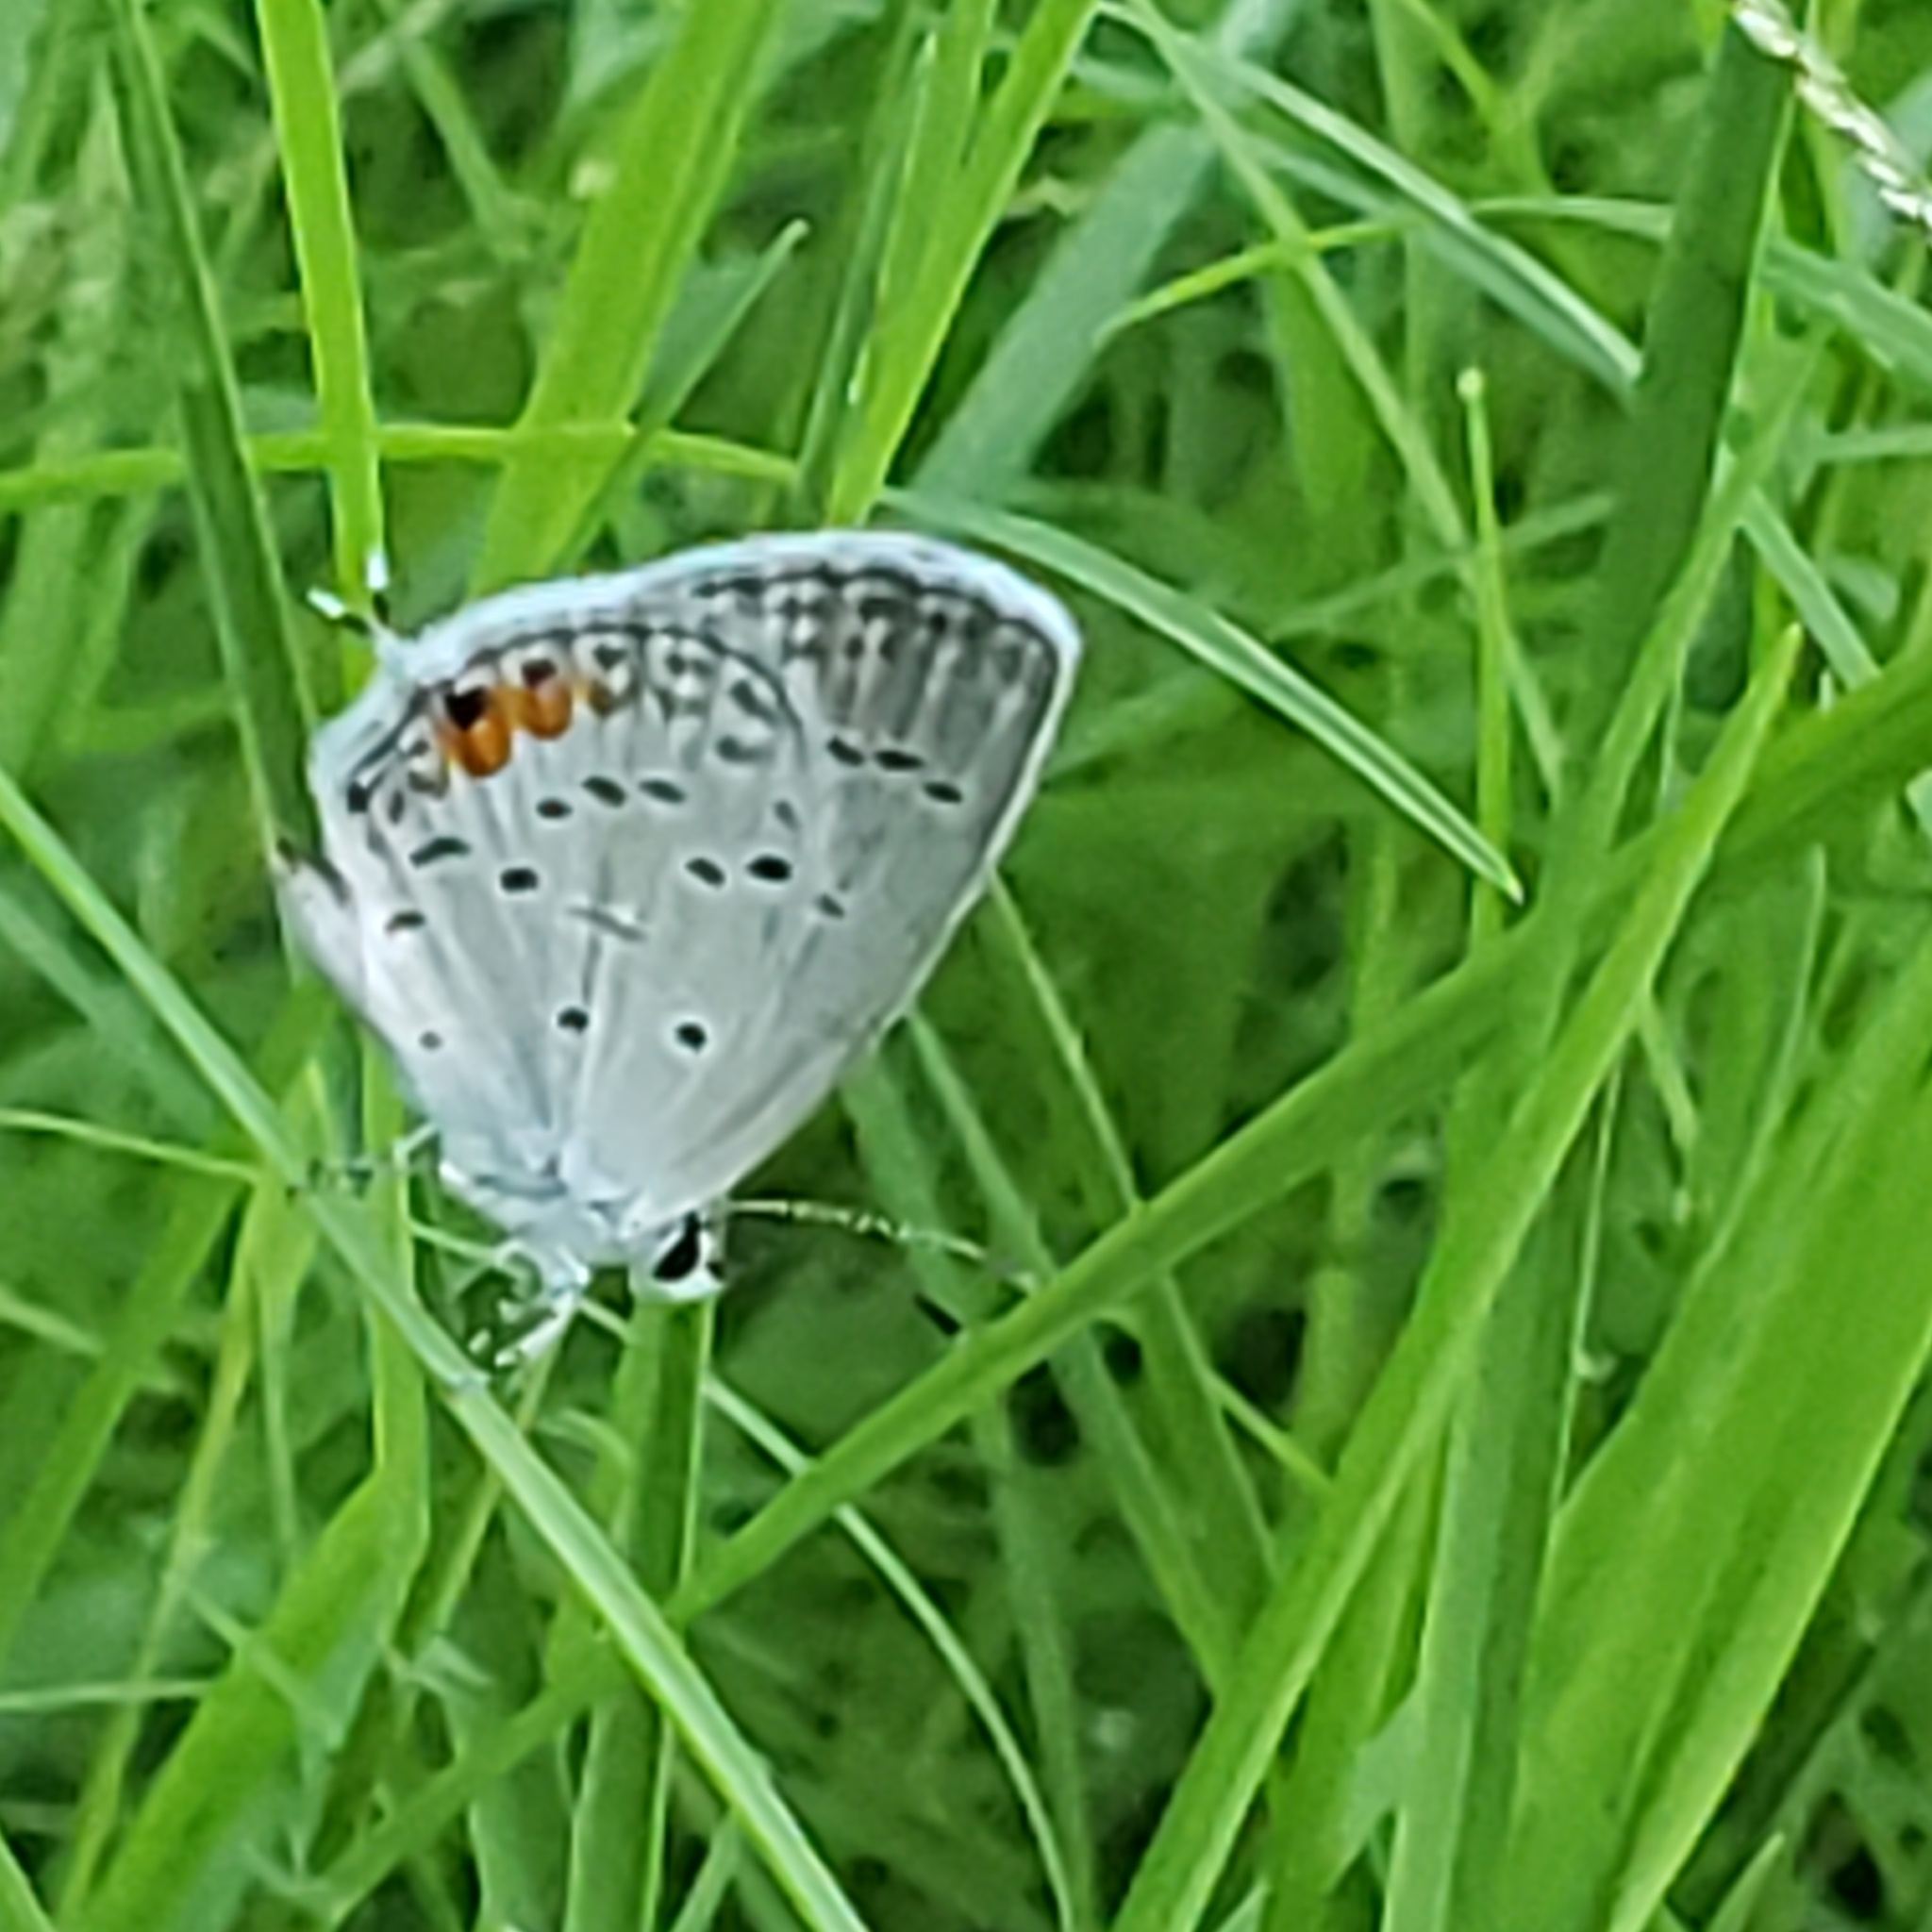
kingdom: Animalia
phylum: Arthropoda
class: Insecta
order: Lepidoptera
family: Lycaenidae
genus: Elkalyce
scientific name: Elkalyce comyntas
